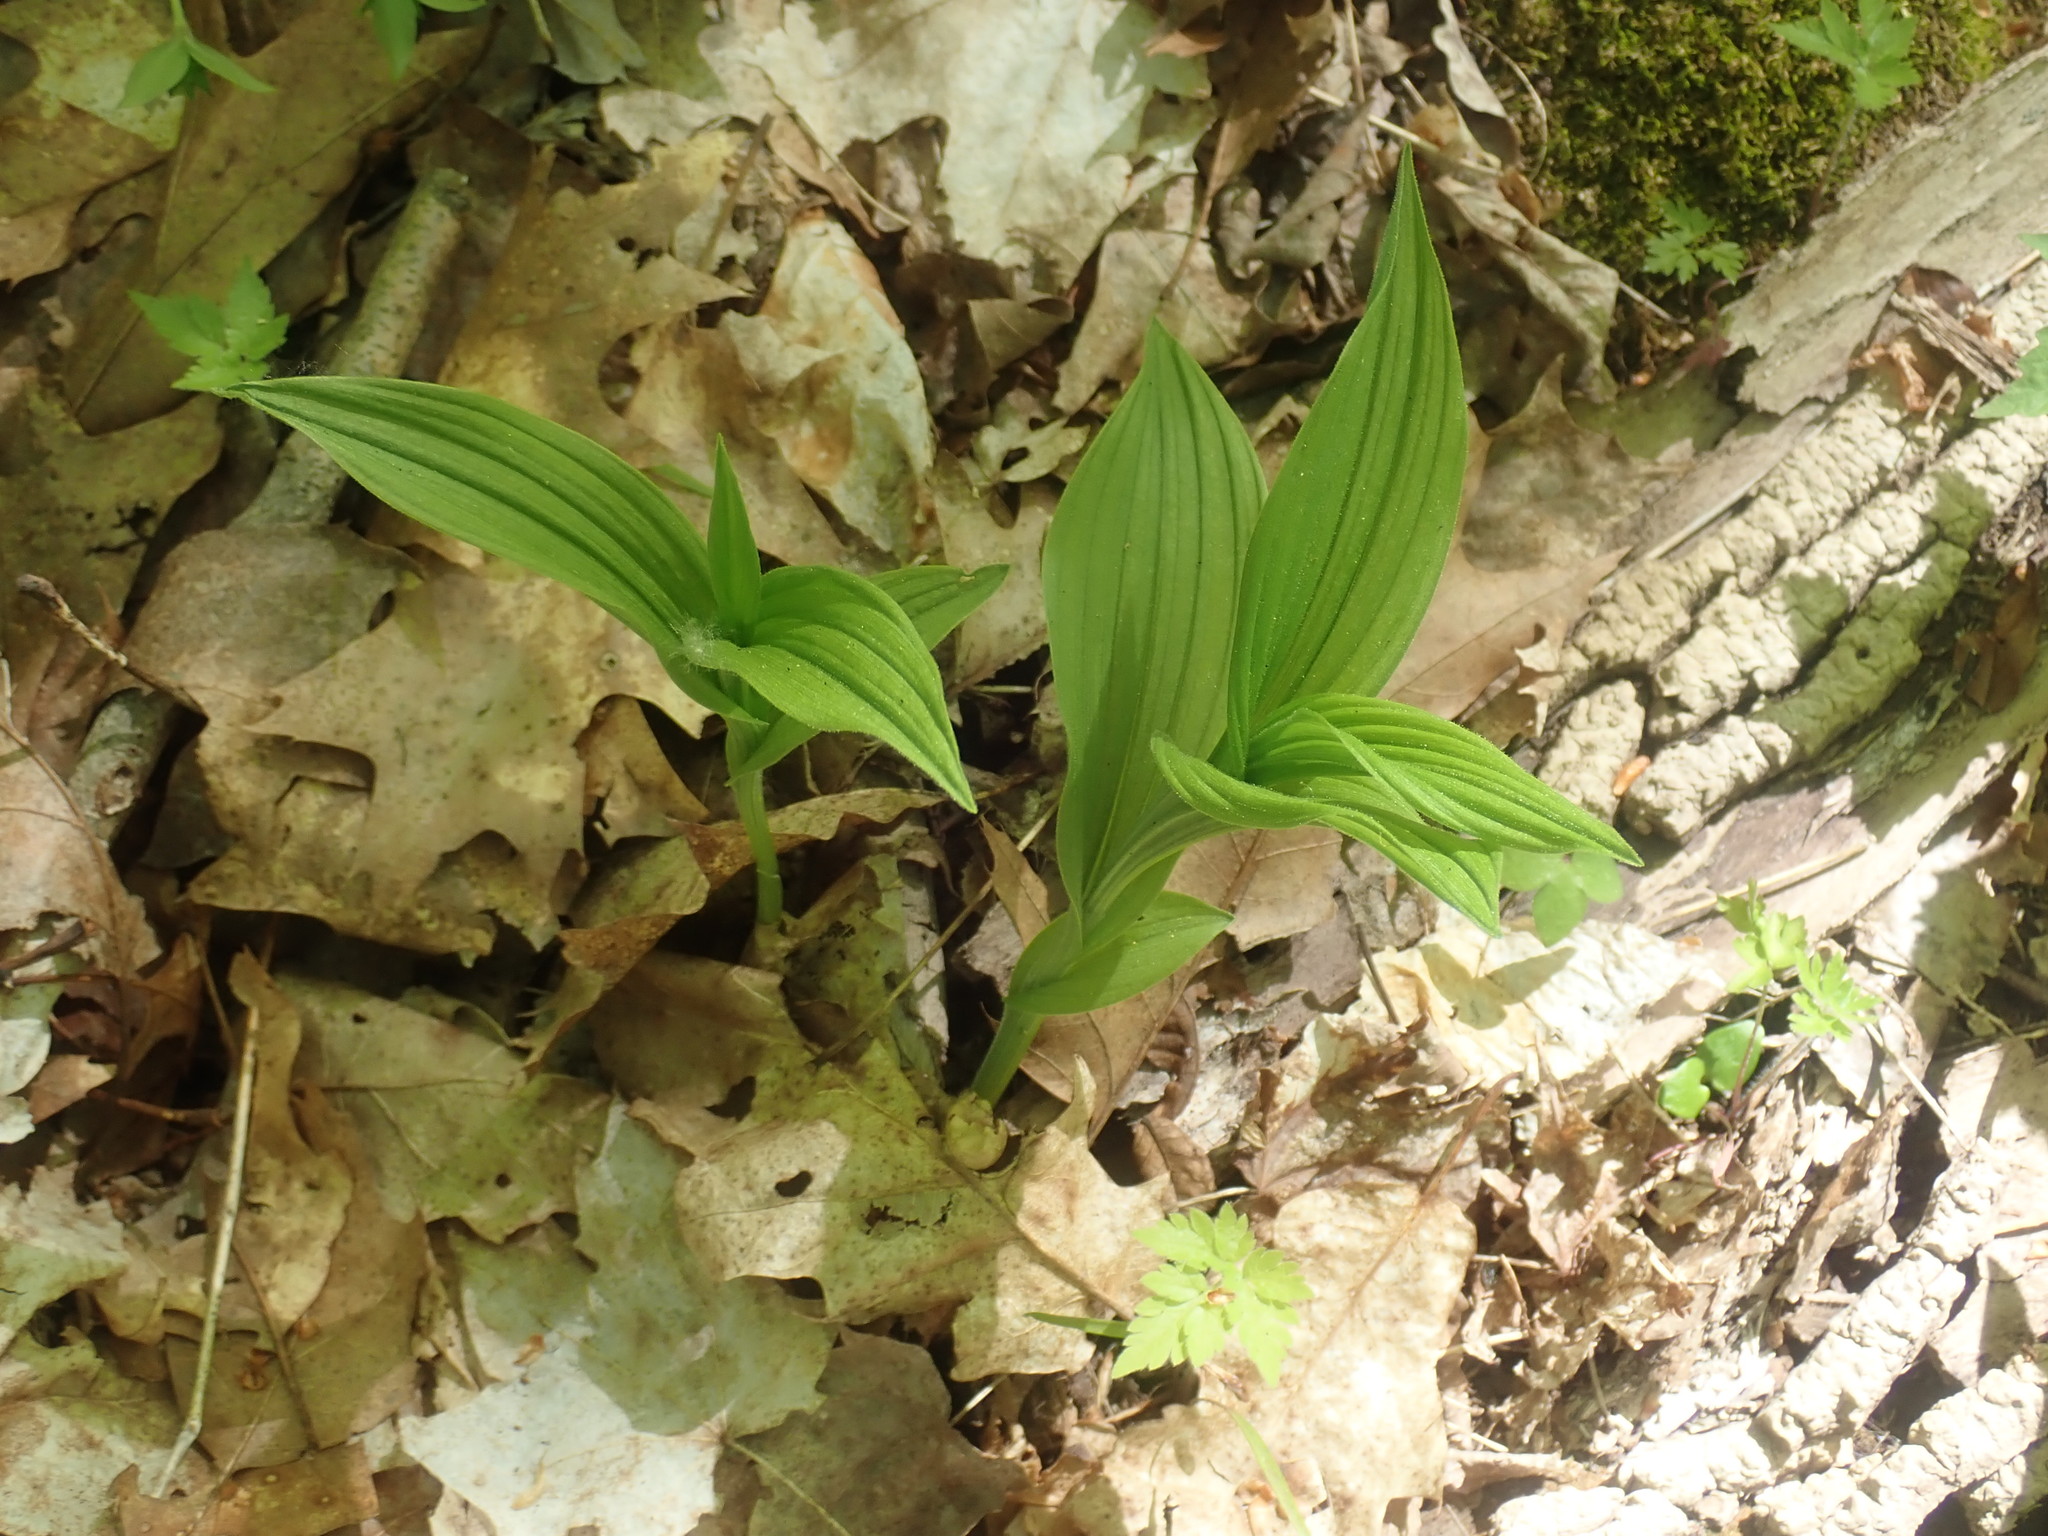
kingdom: Plantae
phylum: Tracheophyta
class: Liliopsida
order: Asparagales
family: Orchidaceae
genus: Cypripedium
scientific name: Cypripedium parviflorum
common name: American yellow lady's-slipper
